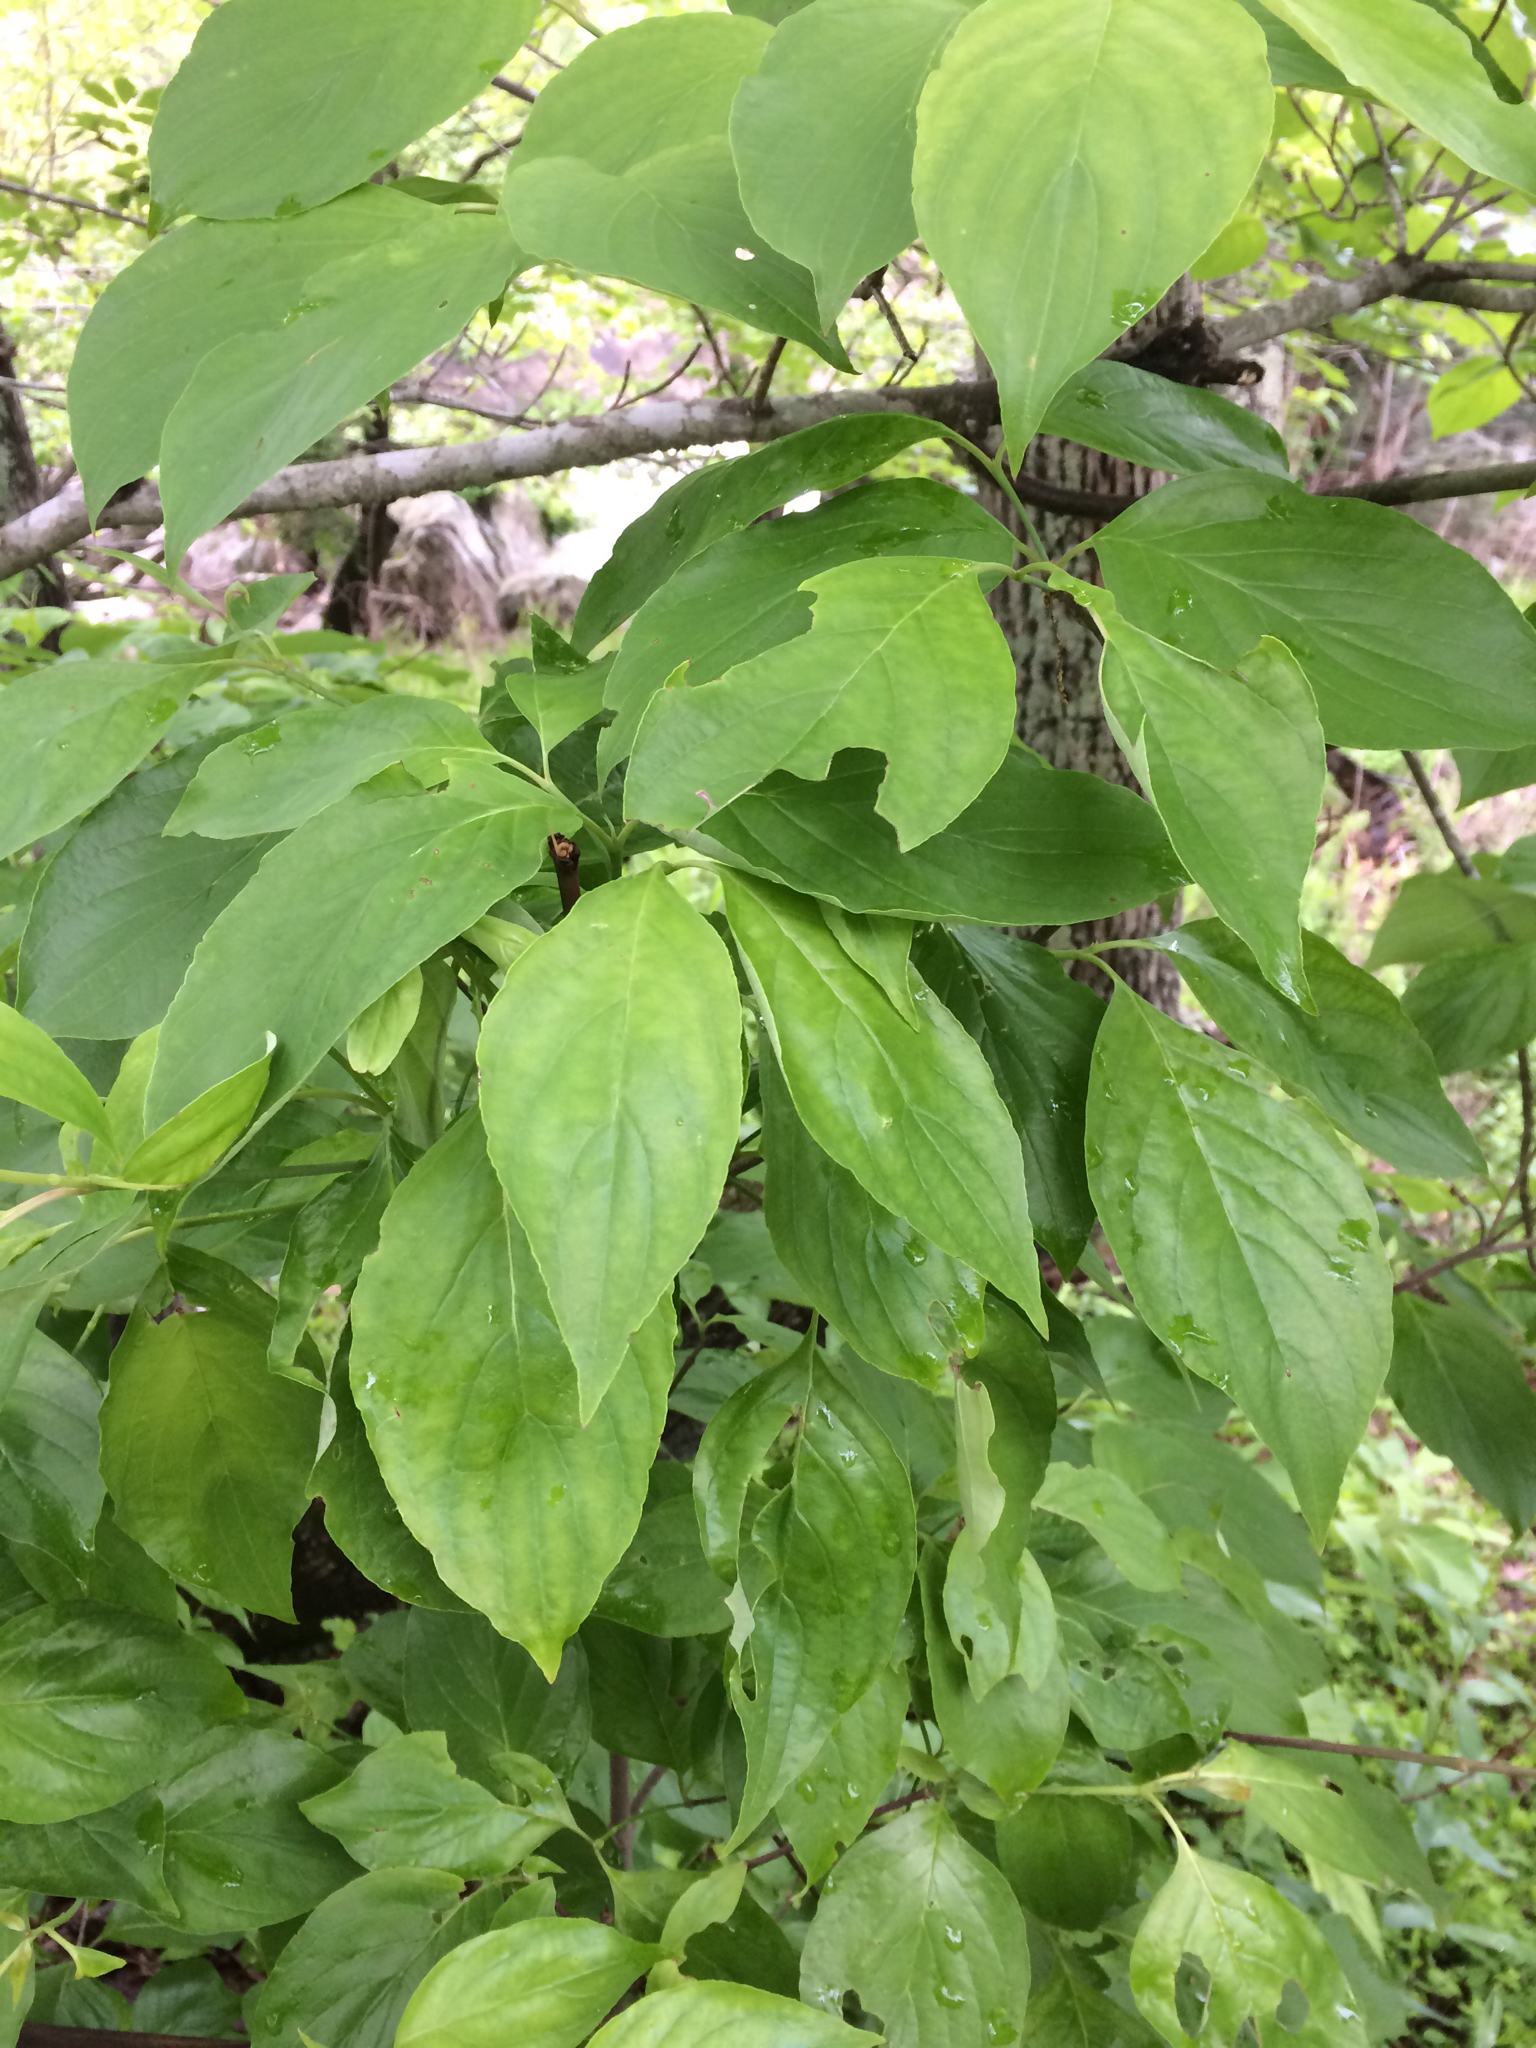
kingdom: Plantae
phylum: Tracheophyta
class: Magnoliopsida
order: Cornales
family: Cornaceae
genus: Cornus
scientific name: Cornus florida
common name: Flowering dogwood
